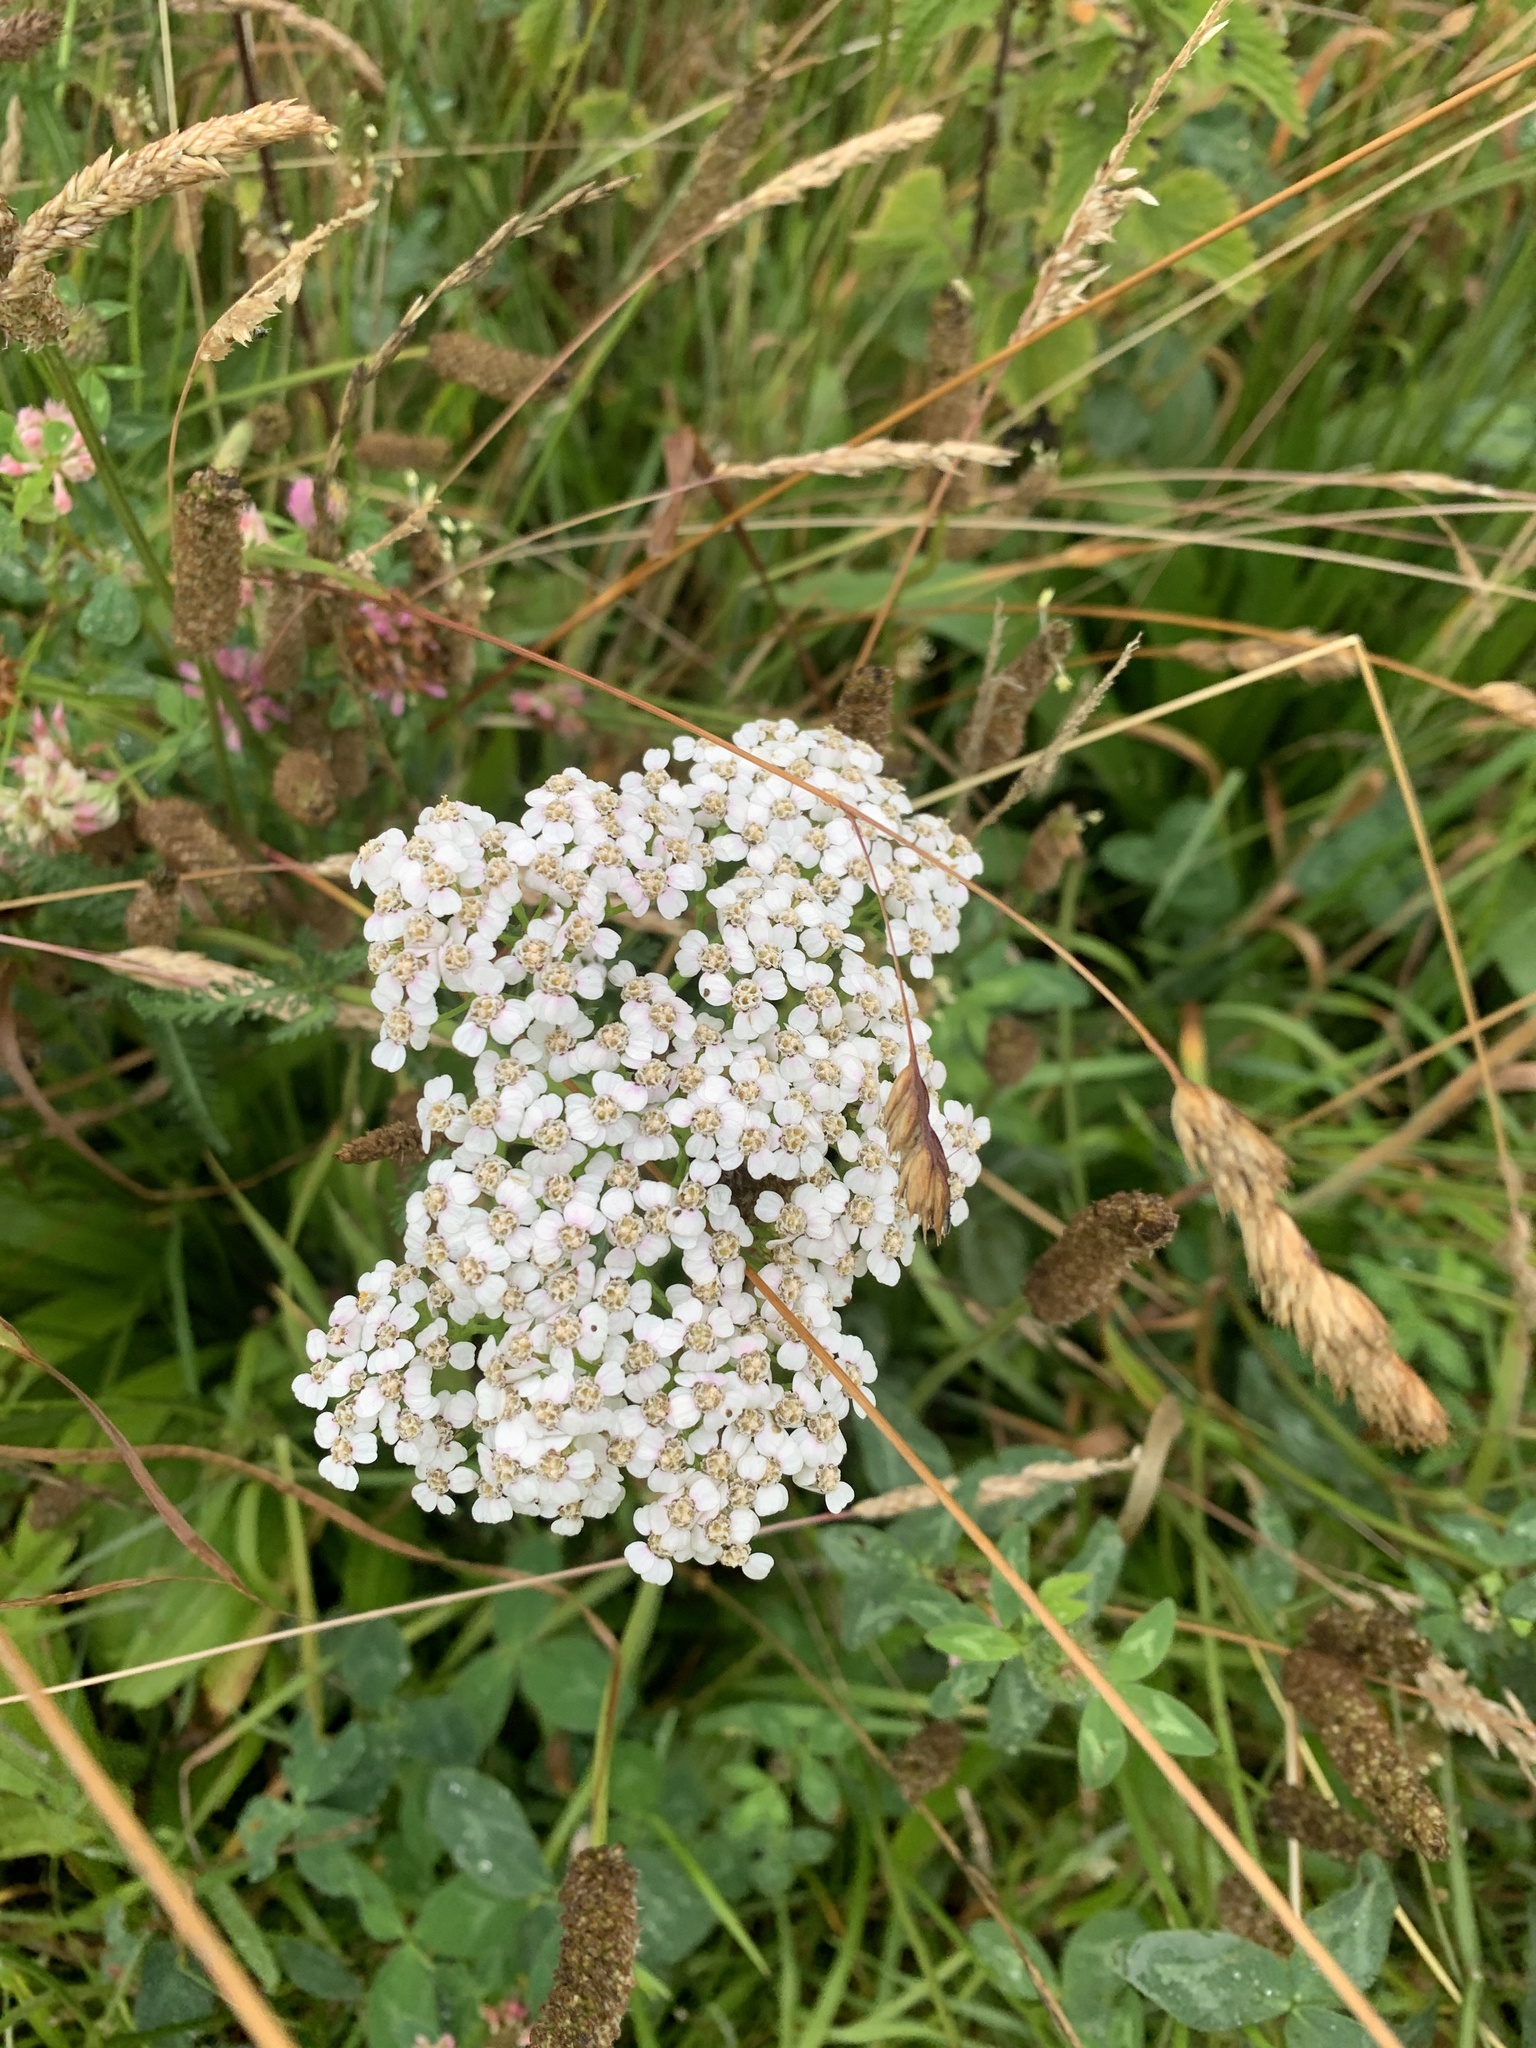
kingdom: Plantae
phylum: Tracheophyta
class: Magnoliopsida
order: Asterales
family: Asteraceae
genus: Achillea
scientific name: Achillea millefolium
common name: Yarrow
